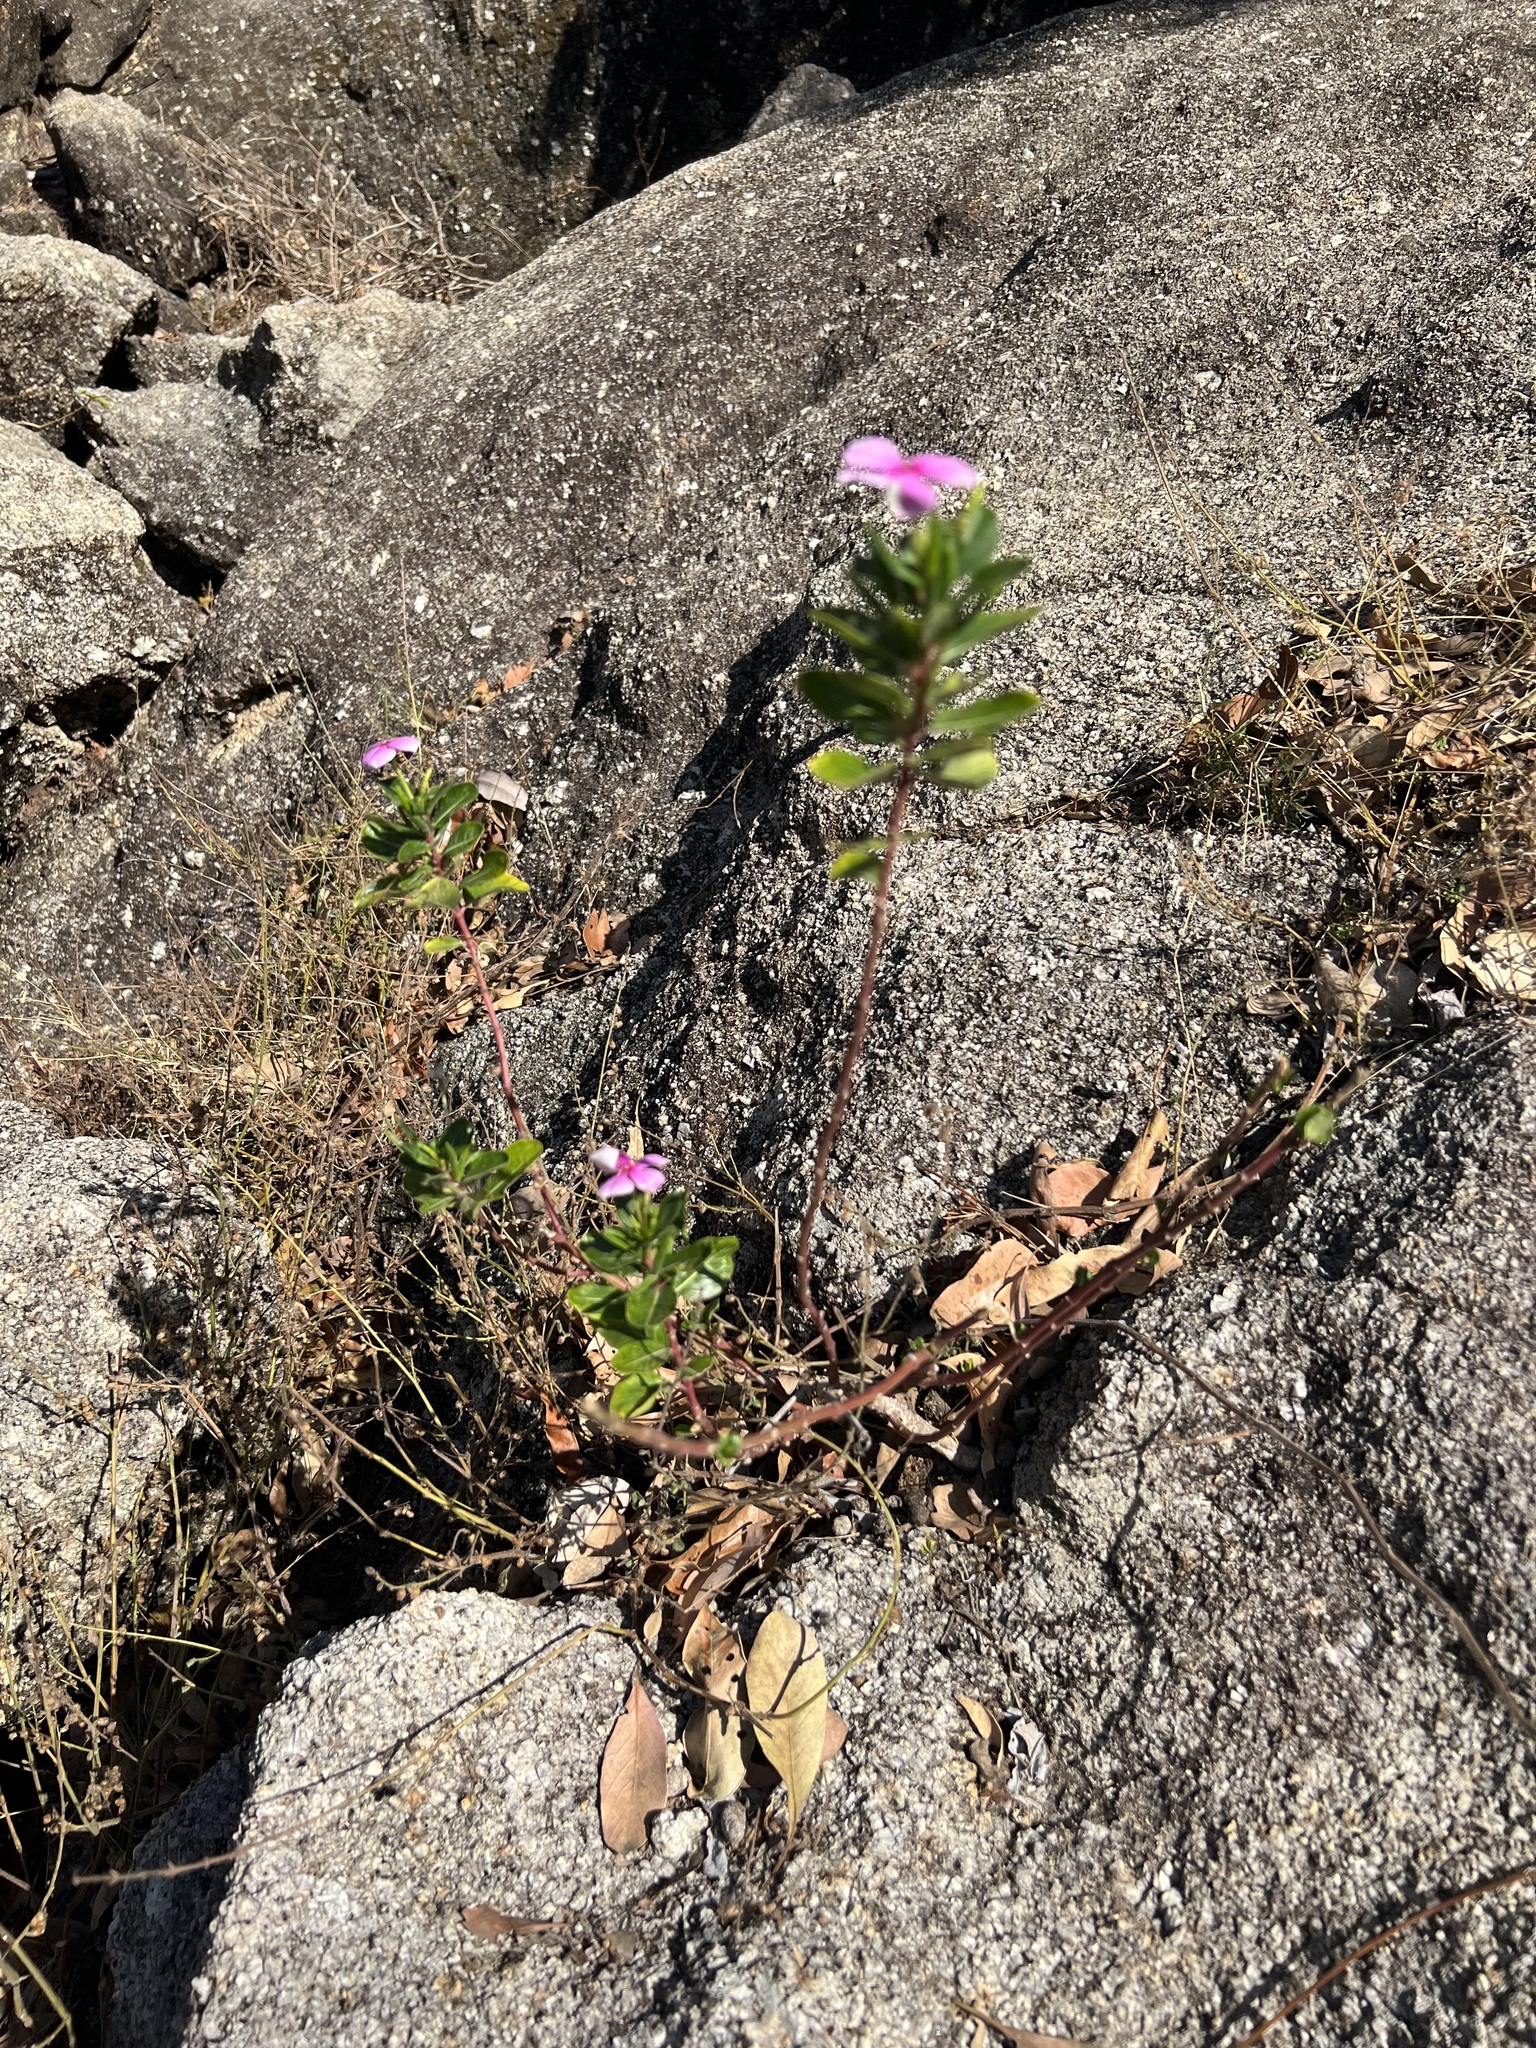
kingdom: Plantae
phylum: Tracheophyta
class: Magnoliopsida
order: Gentianales
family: Apocynaceae
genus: Catharanthus
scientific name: Catharanthus roseus
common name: Madagascar periwinkle
